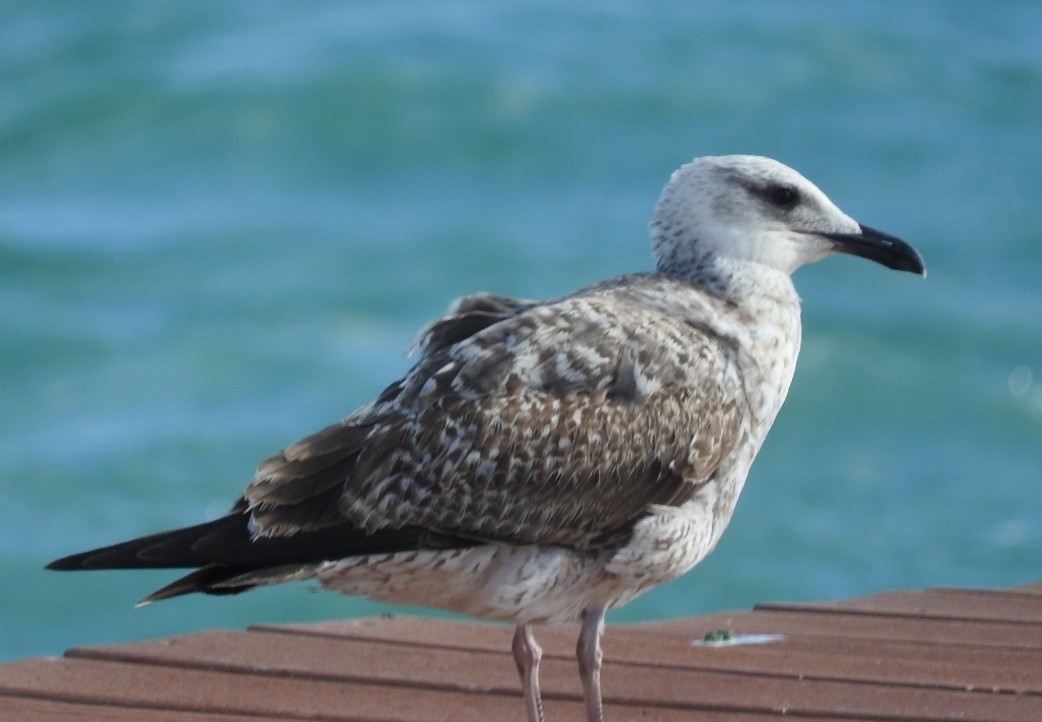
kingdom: Animalia
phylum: Chordata
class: Aves
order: Charadriiformes
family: Laridae
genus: Larus
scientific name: Larus fuscus
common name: Lesser black-backed gull
